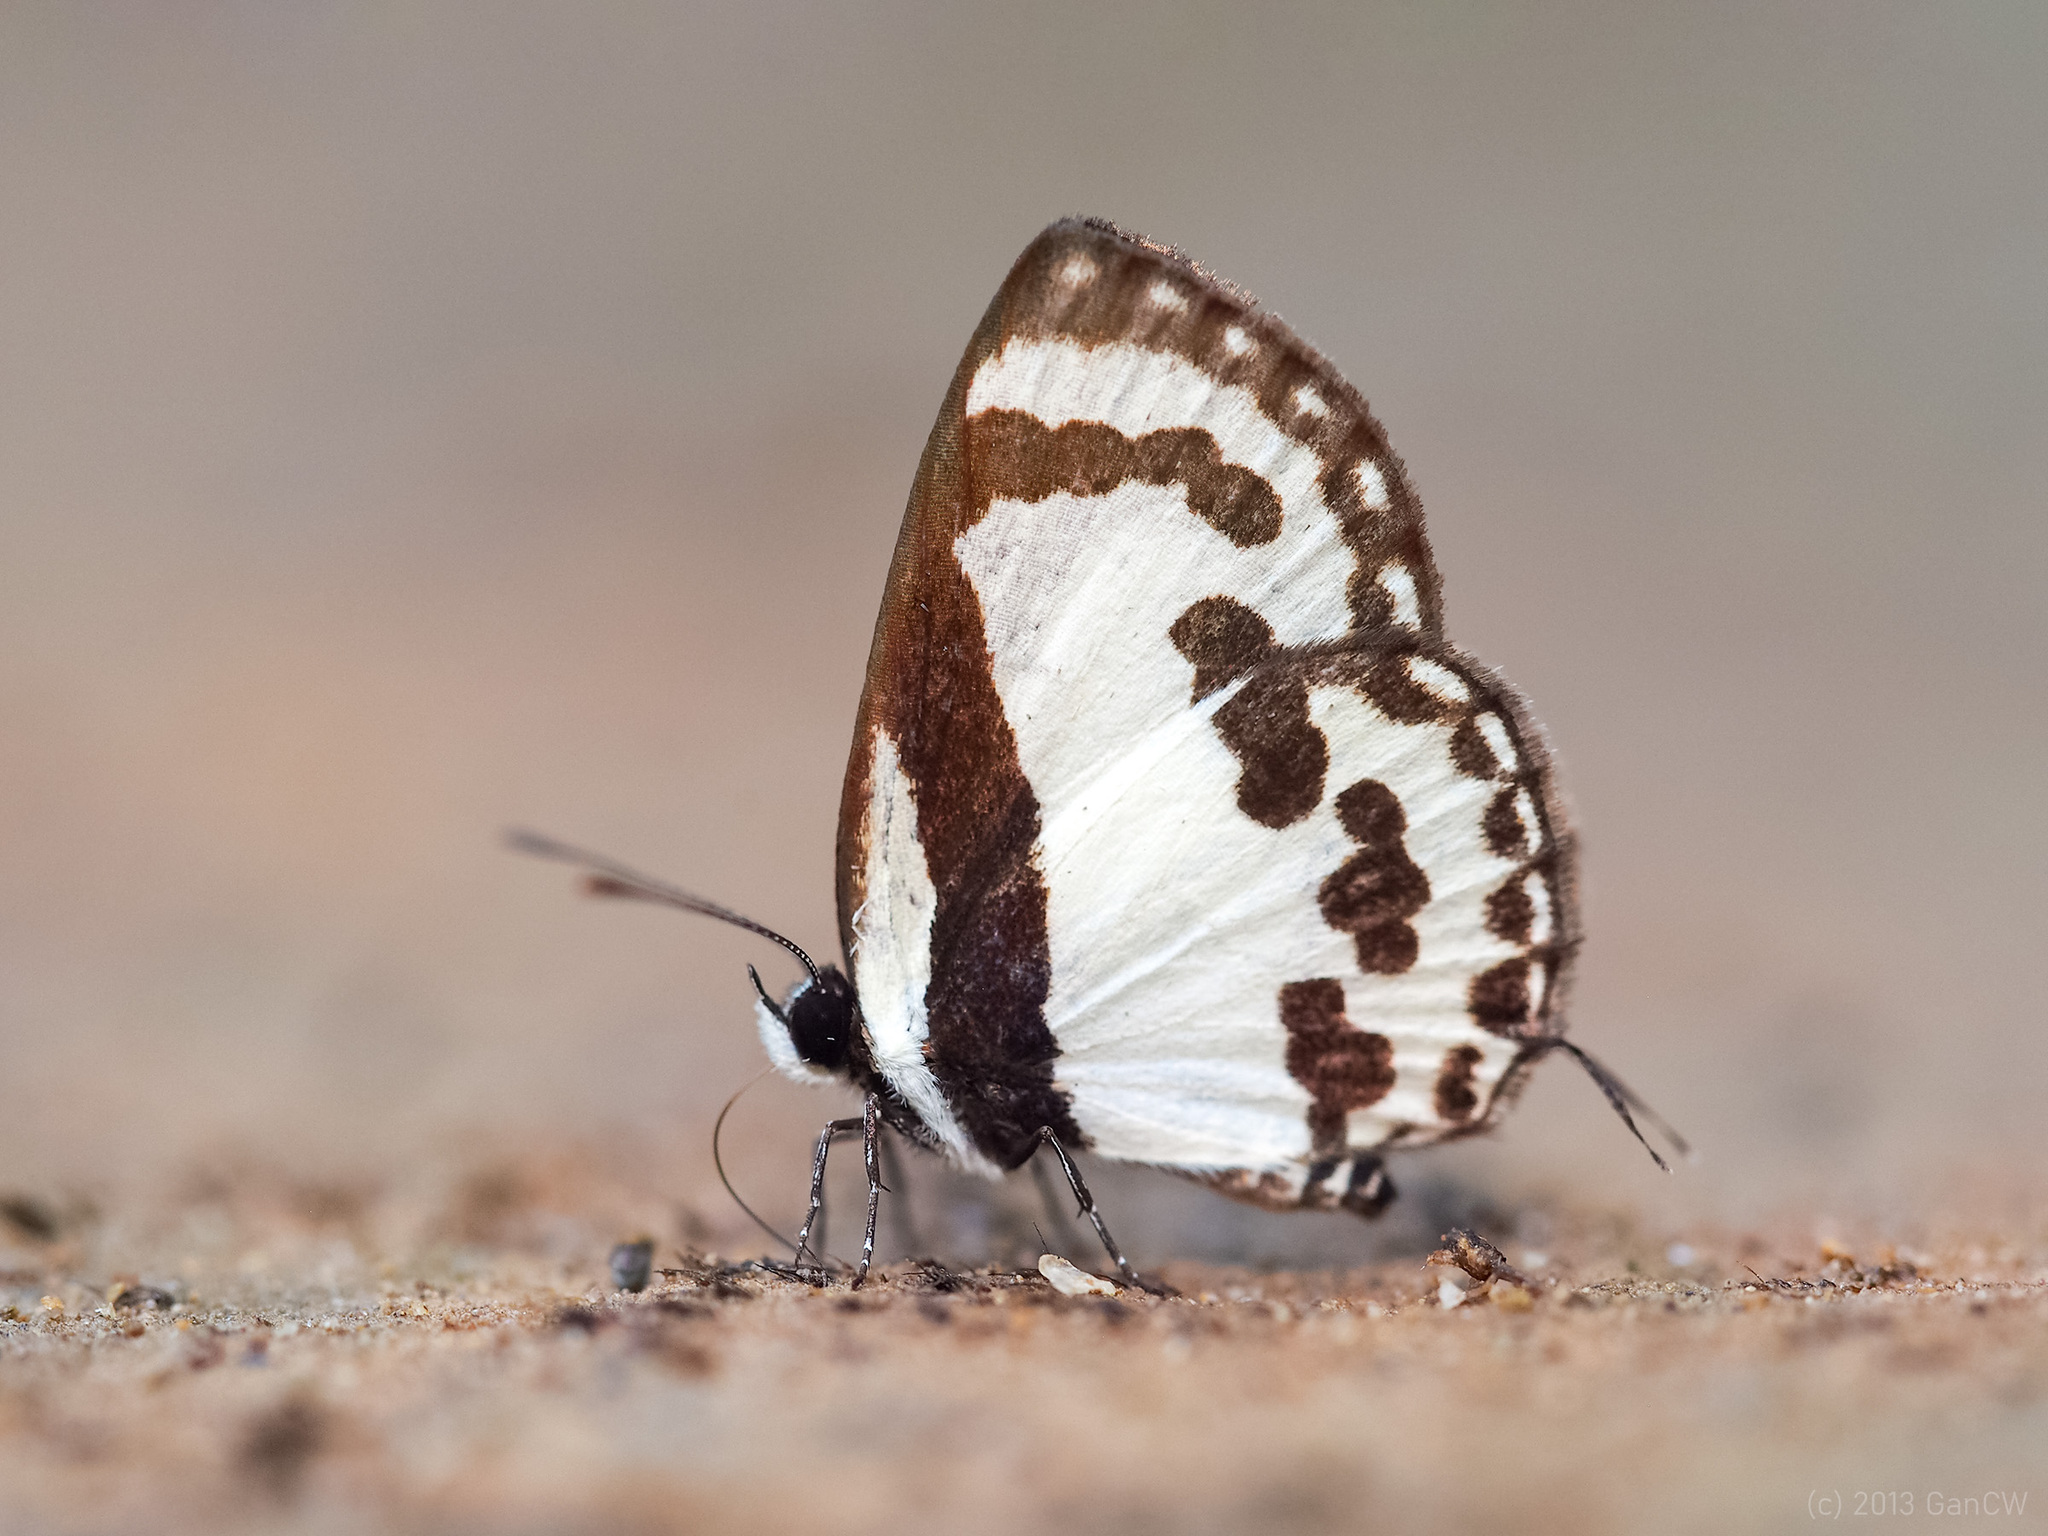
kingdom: Animalia
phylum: Arthropoda
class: Insecta
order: Lepidoptera
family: Lycaenidae
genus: Caleta
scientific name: Caleta roxus
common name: Straight pierrot
